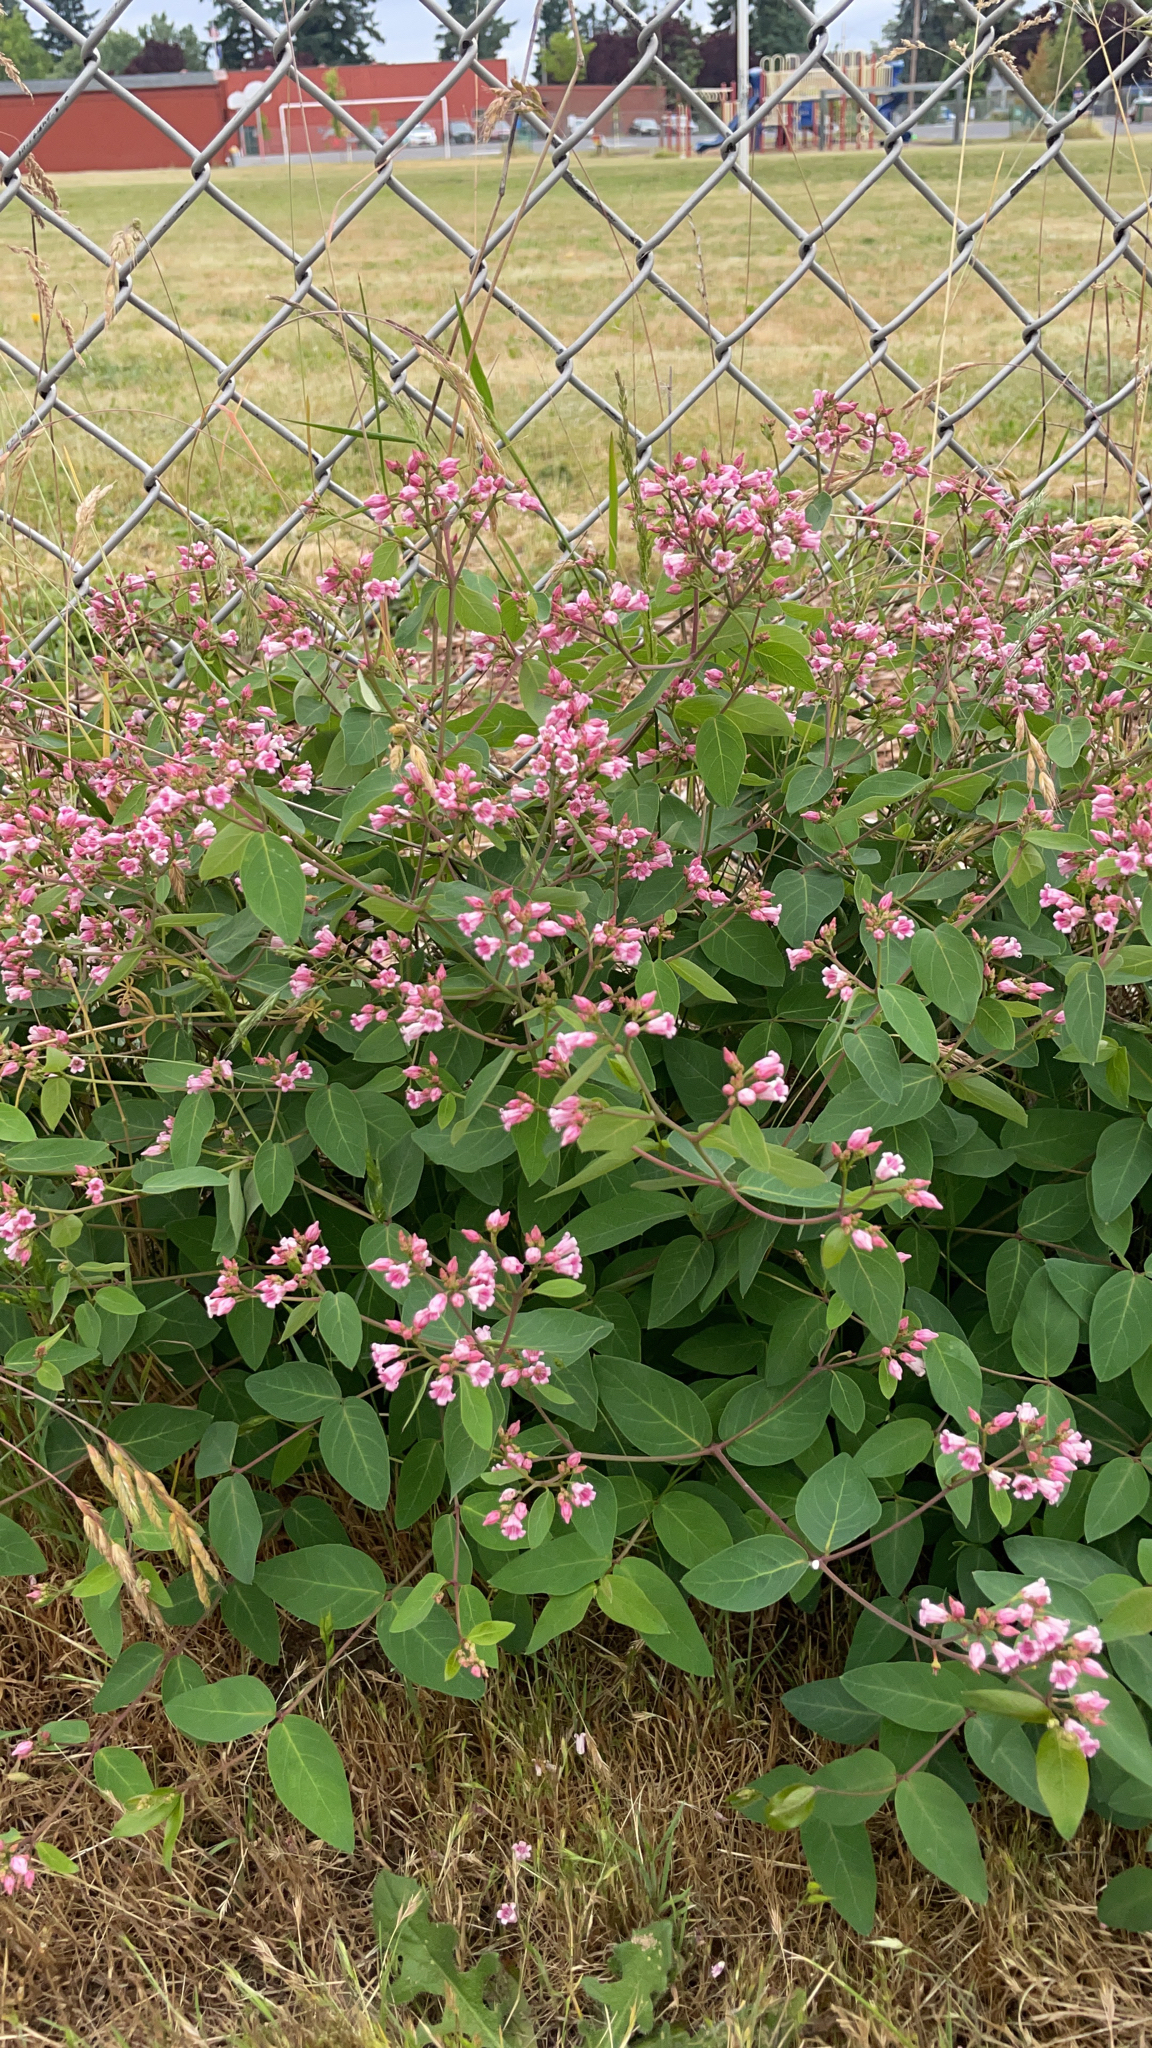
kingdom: Plantae
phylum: Tracheophyta
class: Magnoliopsida
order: Gentianales
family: Apocynaceae
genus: Apocynum
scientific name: Apocynum androsaemifolium
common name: Spreading dogbane
